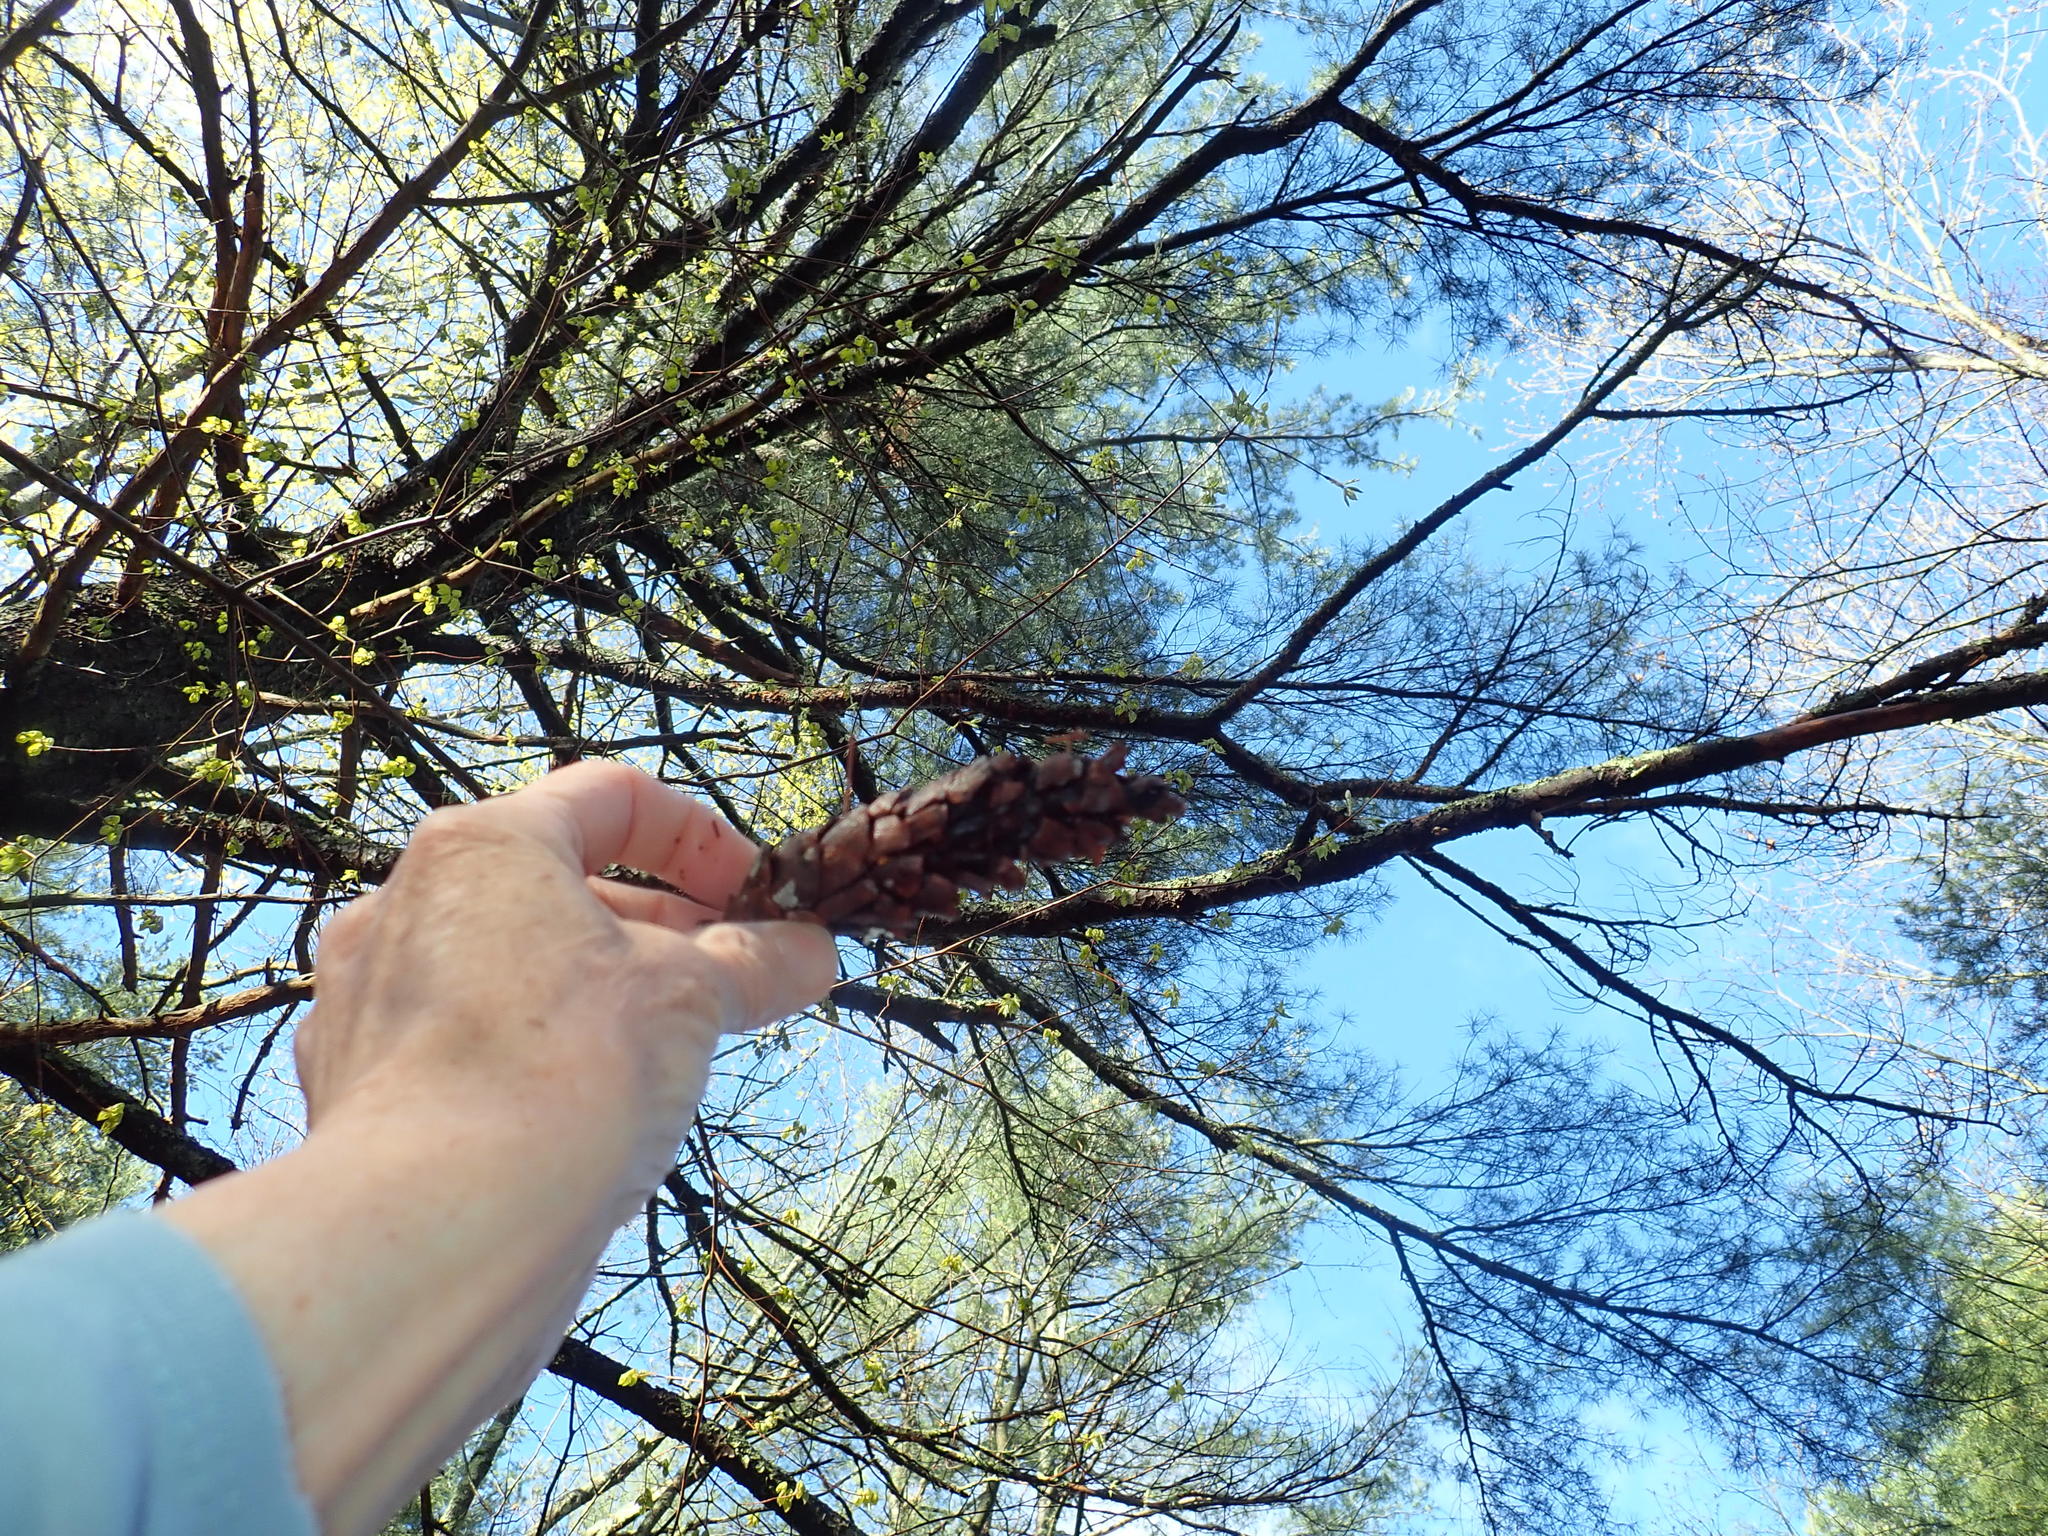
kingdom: Plantae
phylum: Tracheophyta
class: Pinopsida
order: Pinales
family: Pinaceae
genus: Pinus
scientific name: Pinus strobus
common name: Weymouth pine
